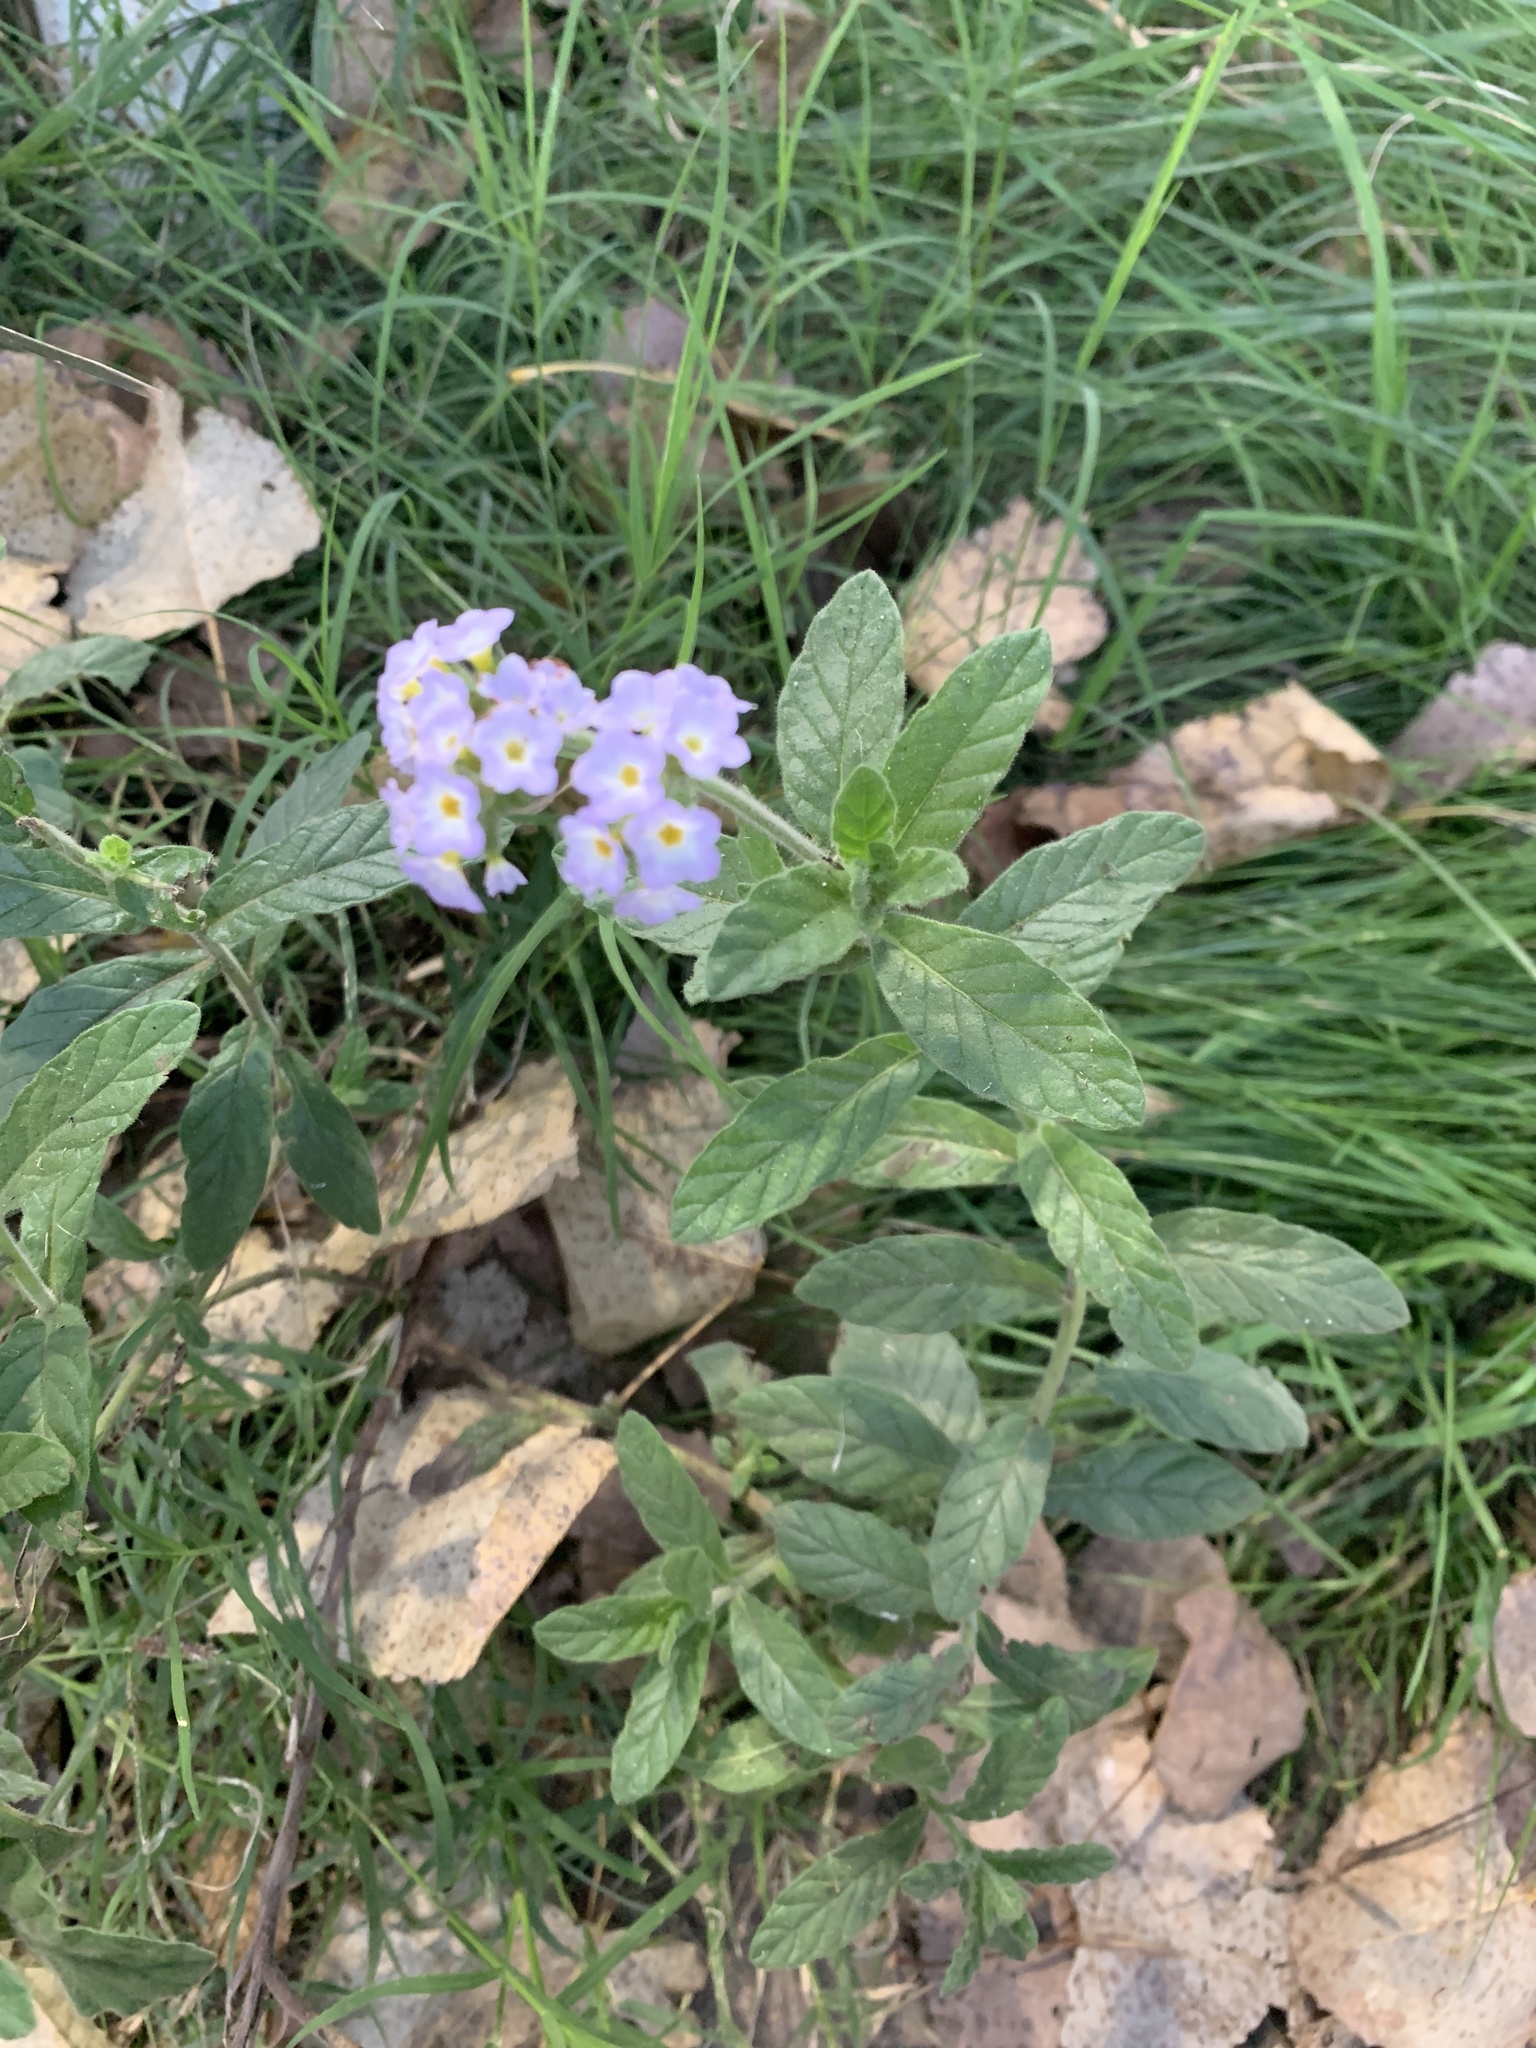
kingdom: Plantae
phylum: Tracheophyta
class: Magnoliopsida
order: Boraginales
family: Heliotropiaceae
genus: Heliotropium
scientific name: Heliotropium amplexicaule
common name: Clasping heliotrope
